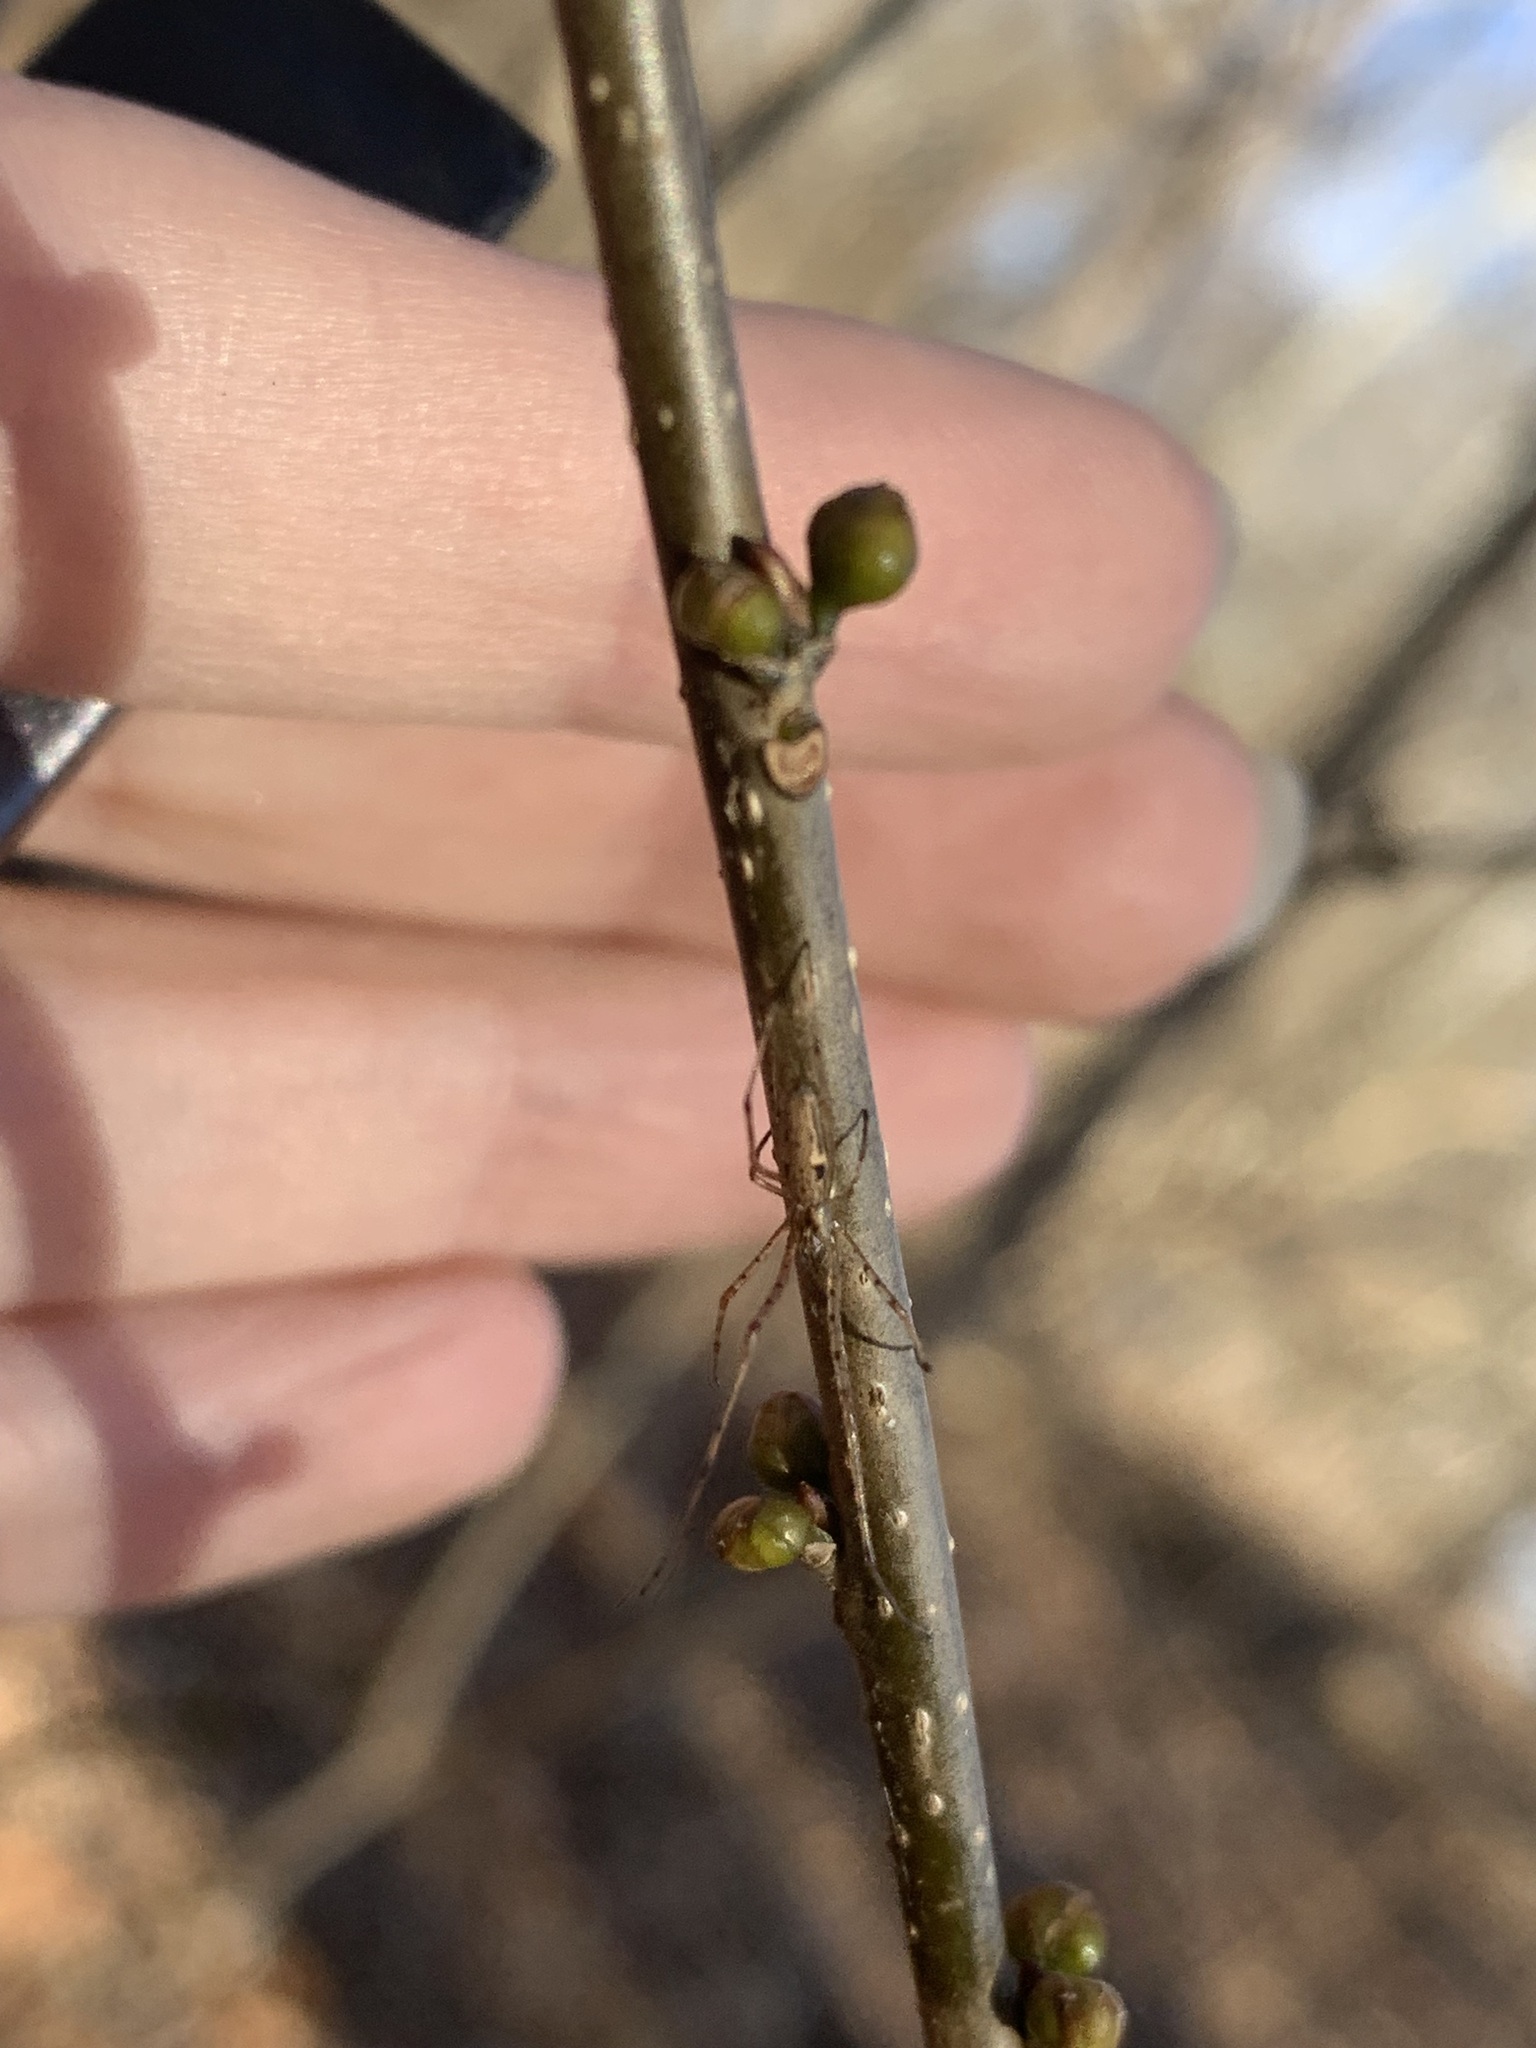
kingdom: Animalia
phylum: Arthropoda
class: Arachnida
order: Araneae
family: Tetragnathidae
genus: Tetragnatha
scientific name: Tetragnatha
